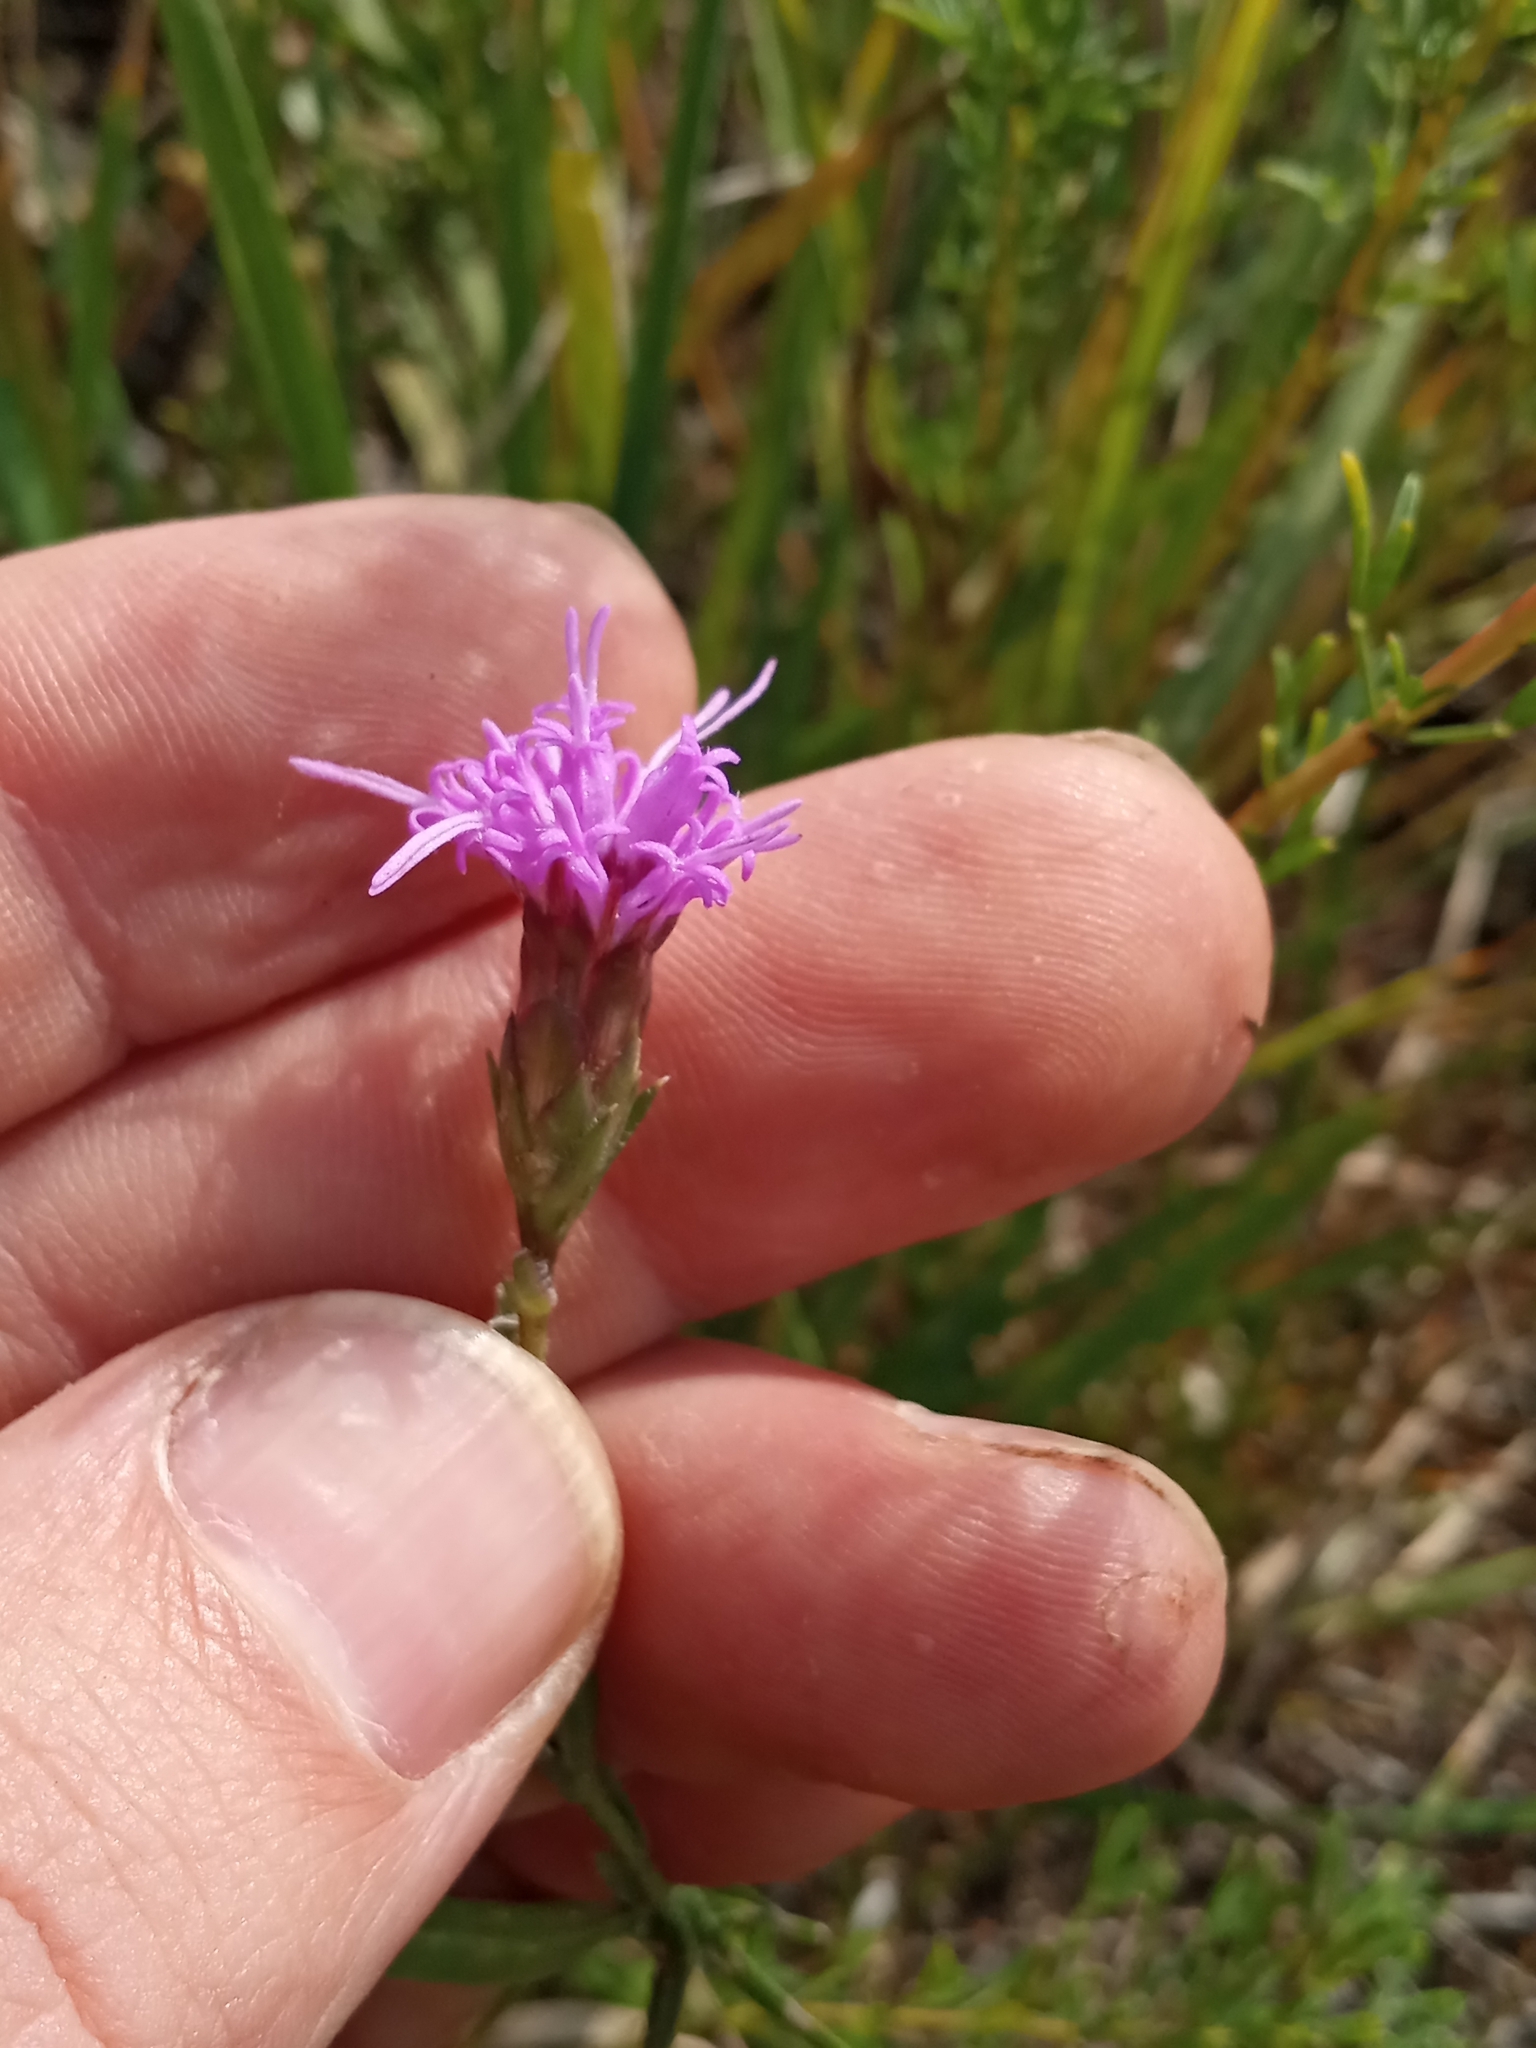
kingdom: Plantae
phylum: Tracheophyta
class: Magnoliopsida
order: Asterales
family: Asteraceae
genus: Liatris
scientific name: Liatris cylindracea
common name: Few-head blazingstar
